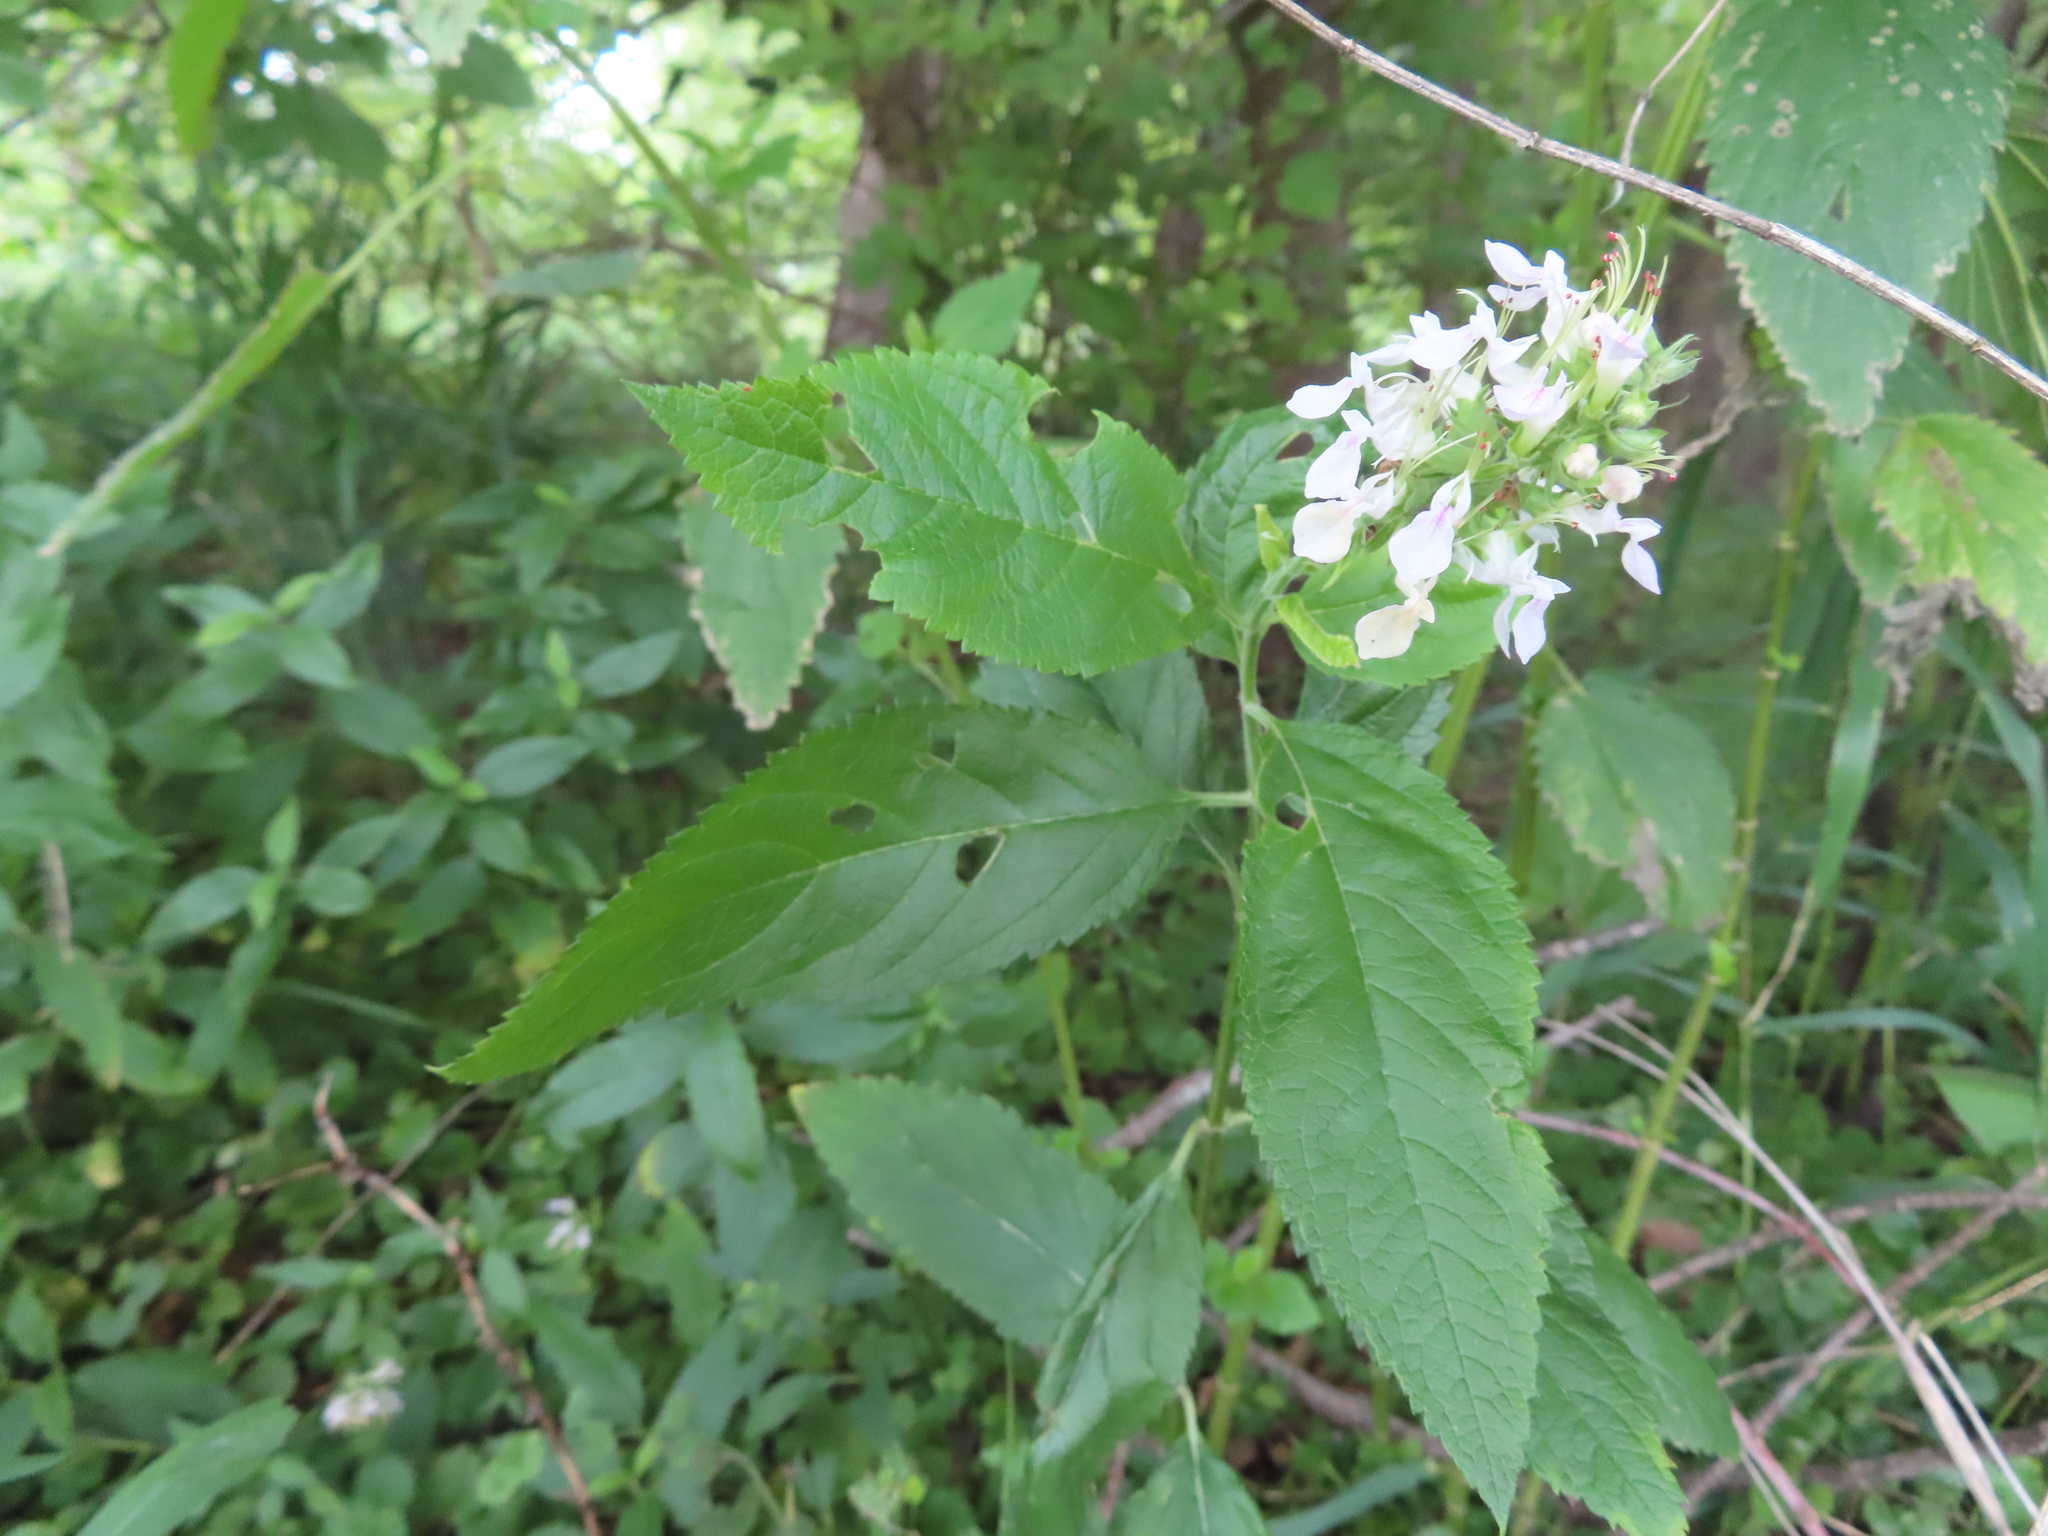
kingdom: Plantae
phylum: Tracheophyta
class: Magnoliopsida
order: Lamiales
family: Lamiaceae
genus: Teucrium
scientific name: Teucrium canadense
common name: American germander
